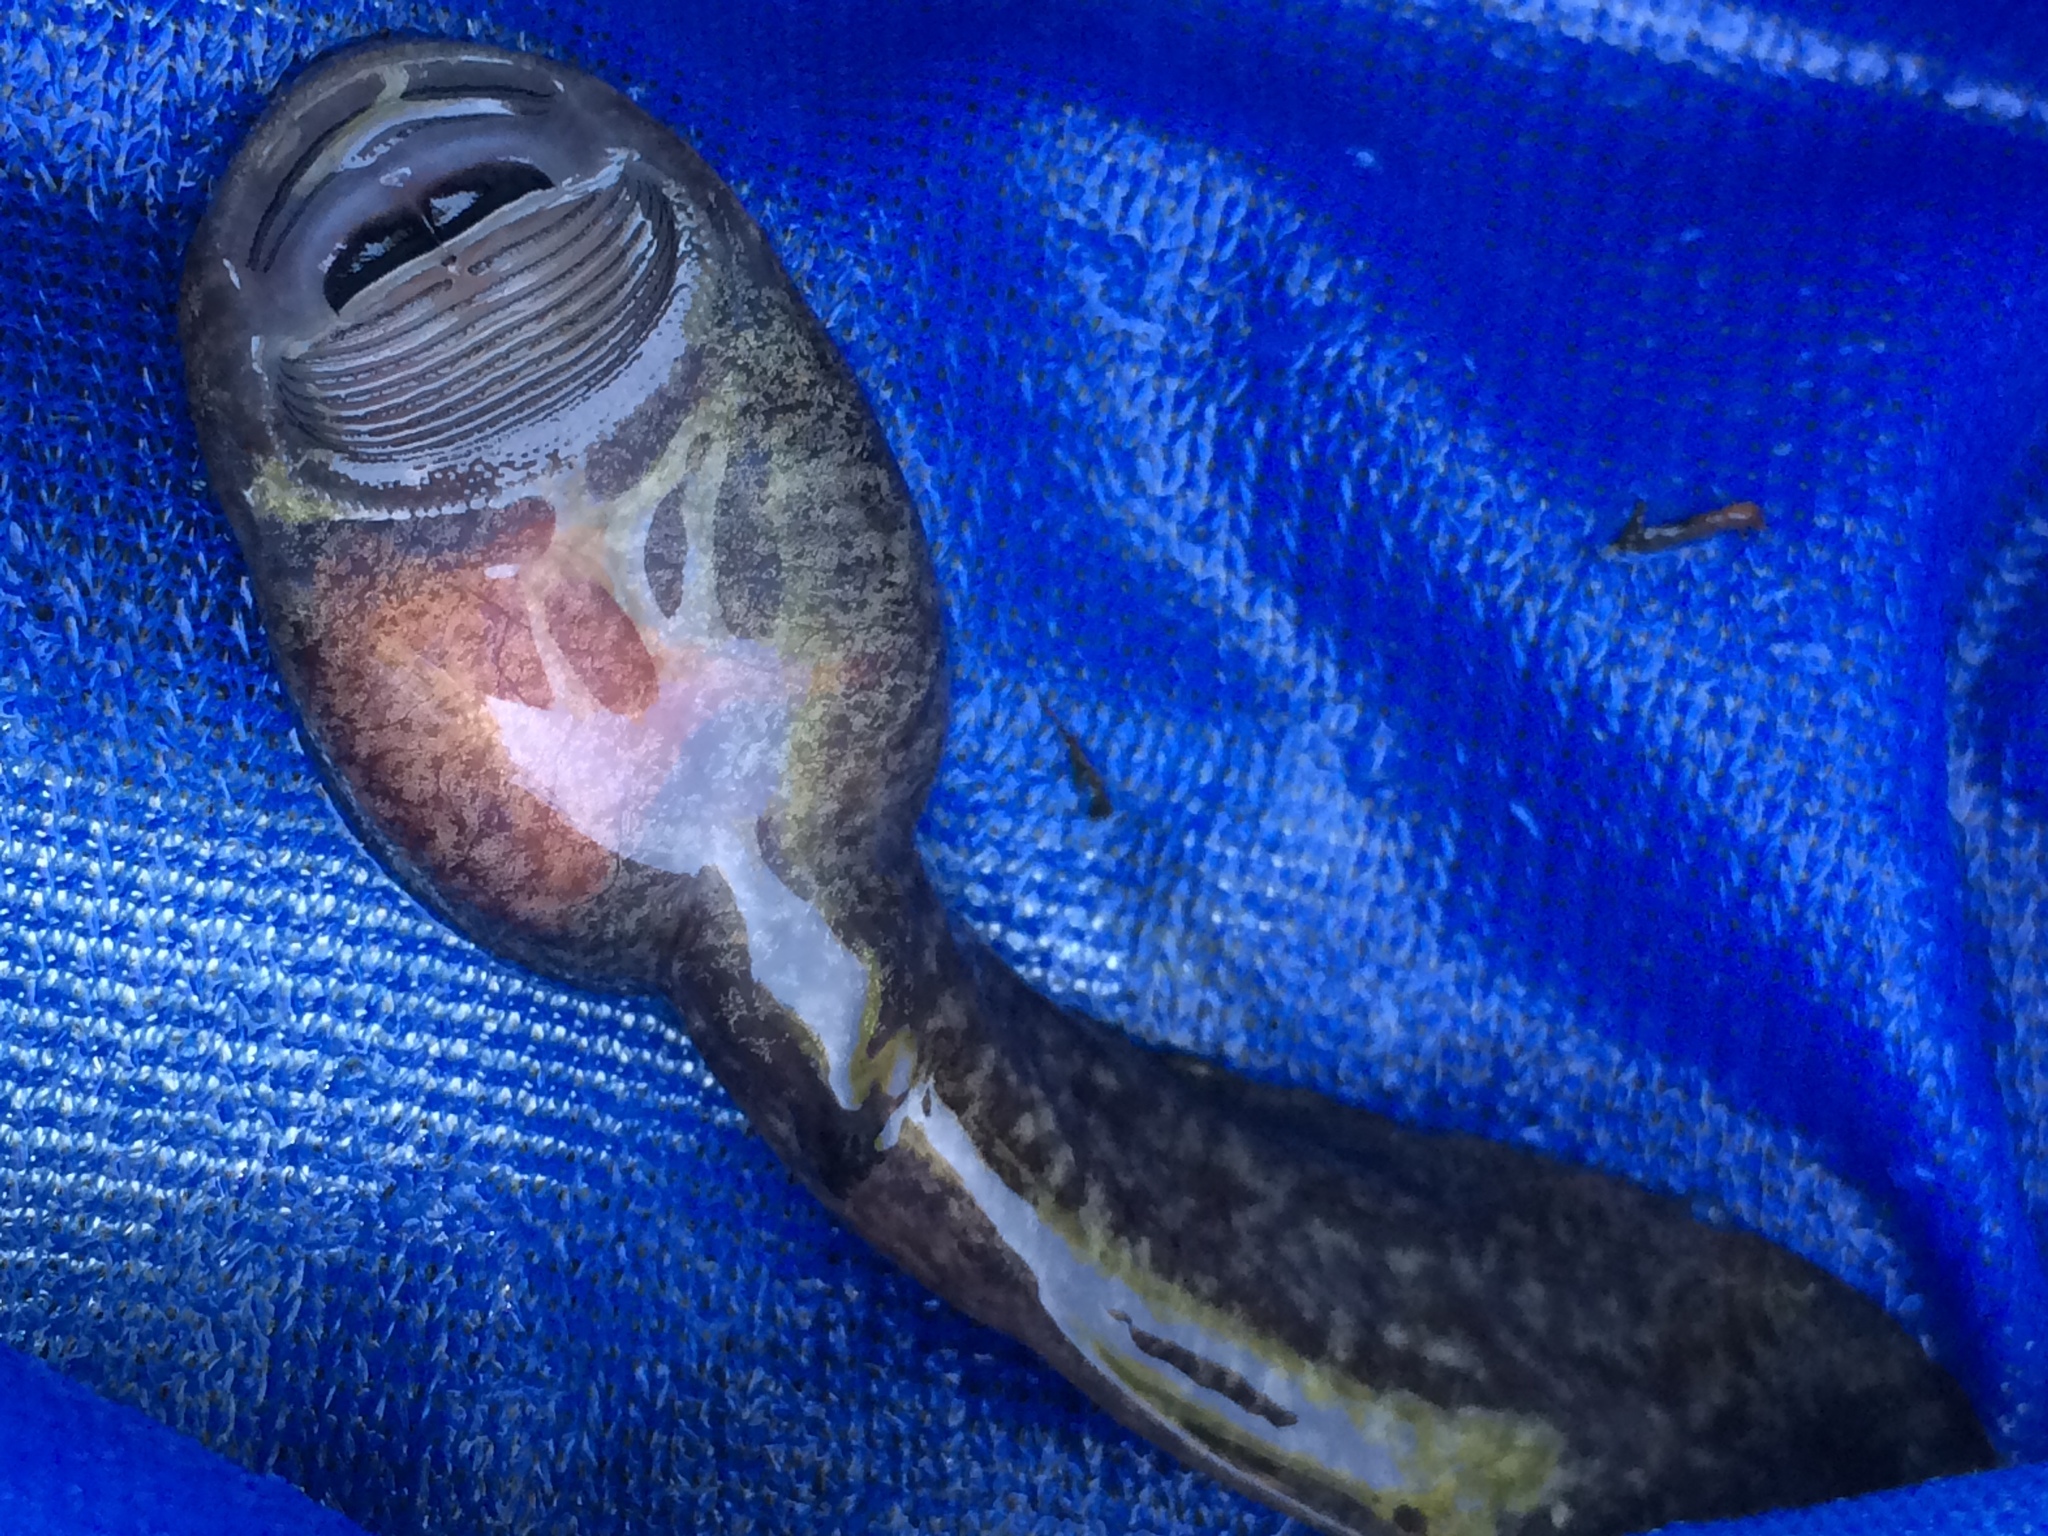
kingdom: Animalia
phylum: Chordata
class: Amphibia
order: Anura
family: Ascaphidae
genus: Ascaphus
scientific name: Ascaphus truei
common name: Tailed frog
